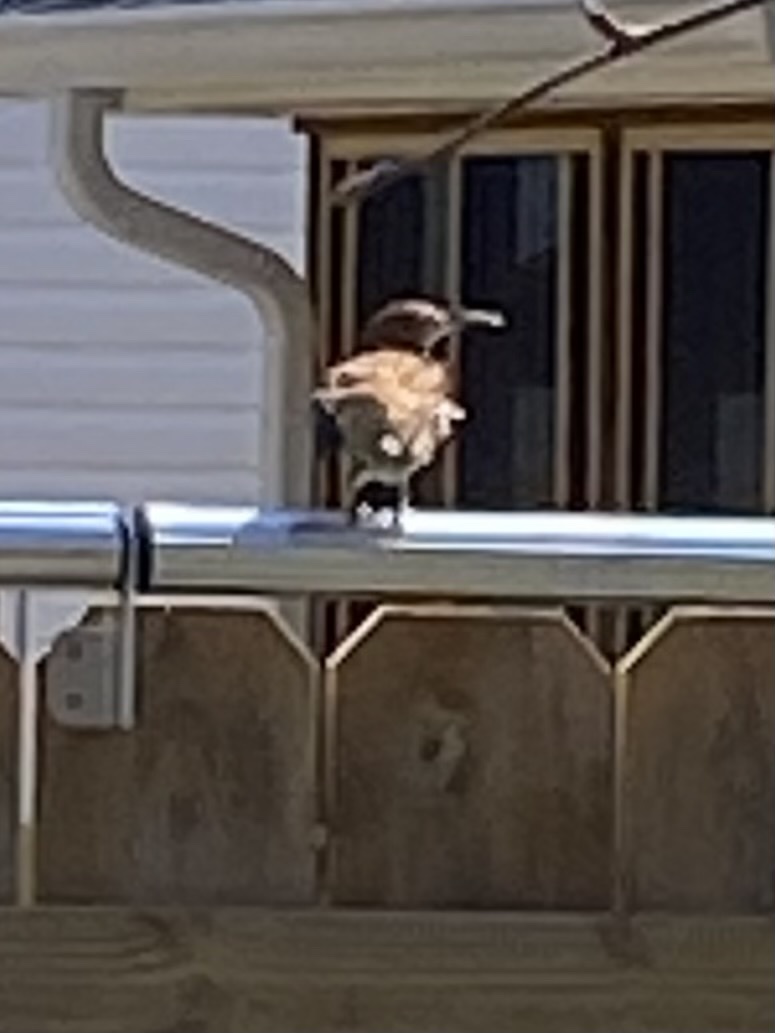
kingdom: Animalia
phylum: Chordata
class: Aves
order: Passeriformes
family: Mimidae
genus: Toxostoma
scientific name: Toxostoma rufum
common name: Brown thrasher
